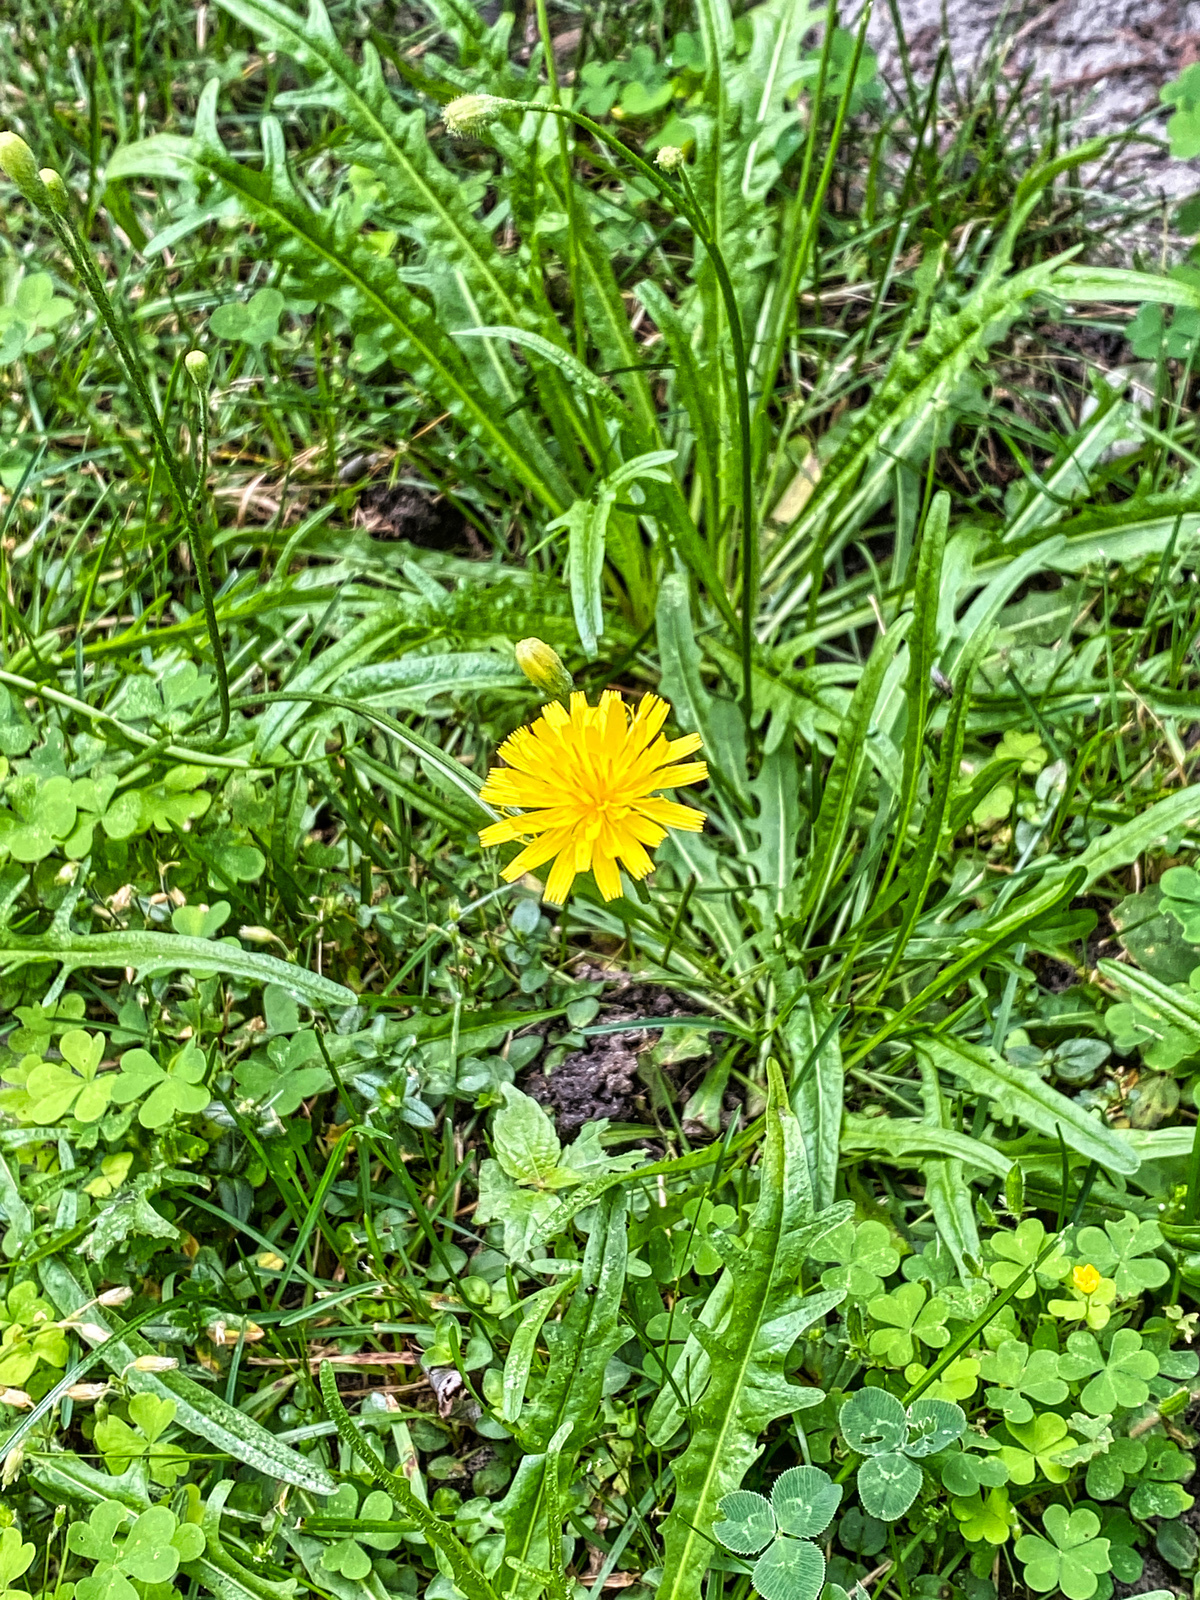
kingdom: Plantae
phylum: Tracheophyta
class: Magnoliopsida
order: Asterales
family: Asteraceae
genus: Scorzoneroides
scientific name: Scorzoneroides autumnalis
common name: Autumn hawkbit
